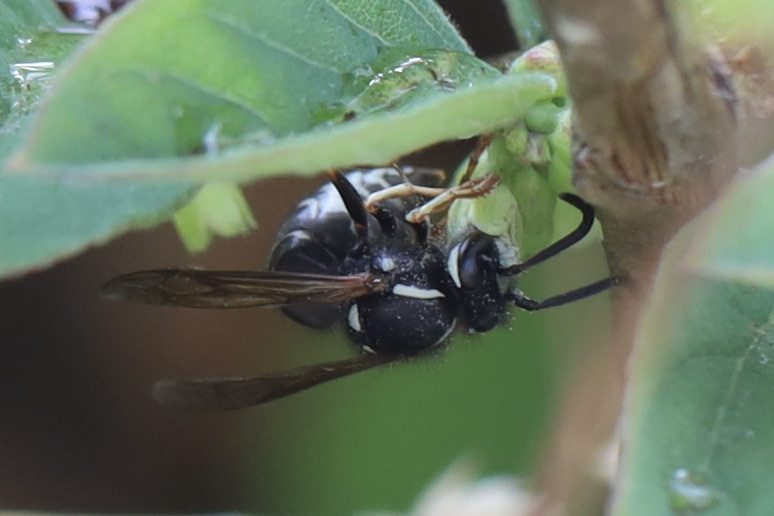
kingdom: Animalia
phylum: Arthropoda
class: Insecta
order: Hymenoptera
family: Vespidae
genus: Vespula
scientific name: Vespula consobrina
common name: Blackjacket
